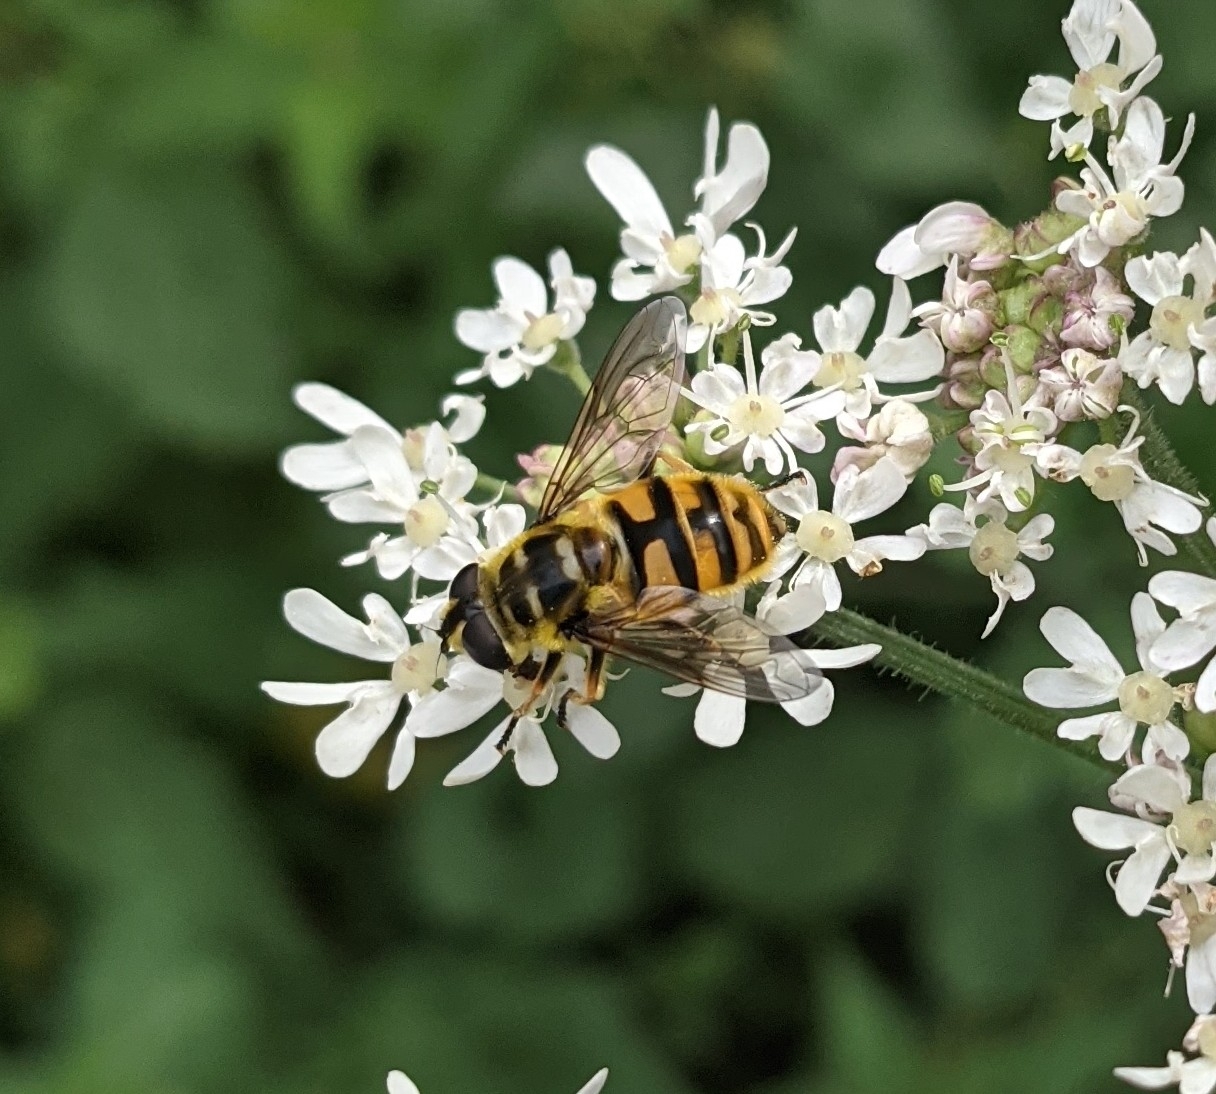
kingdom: Animalia
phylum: Arthropoda
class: Insecta
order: Diptera
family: Syrphidae
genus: Myathropa
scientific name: Myathropa florea
